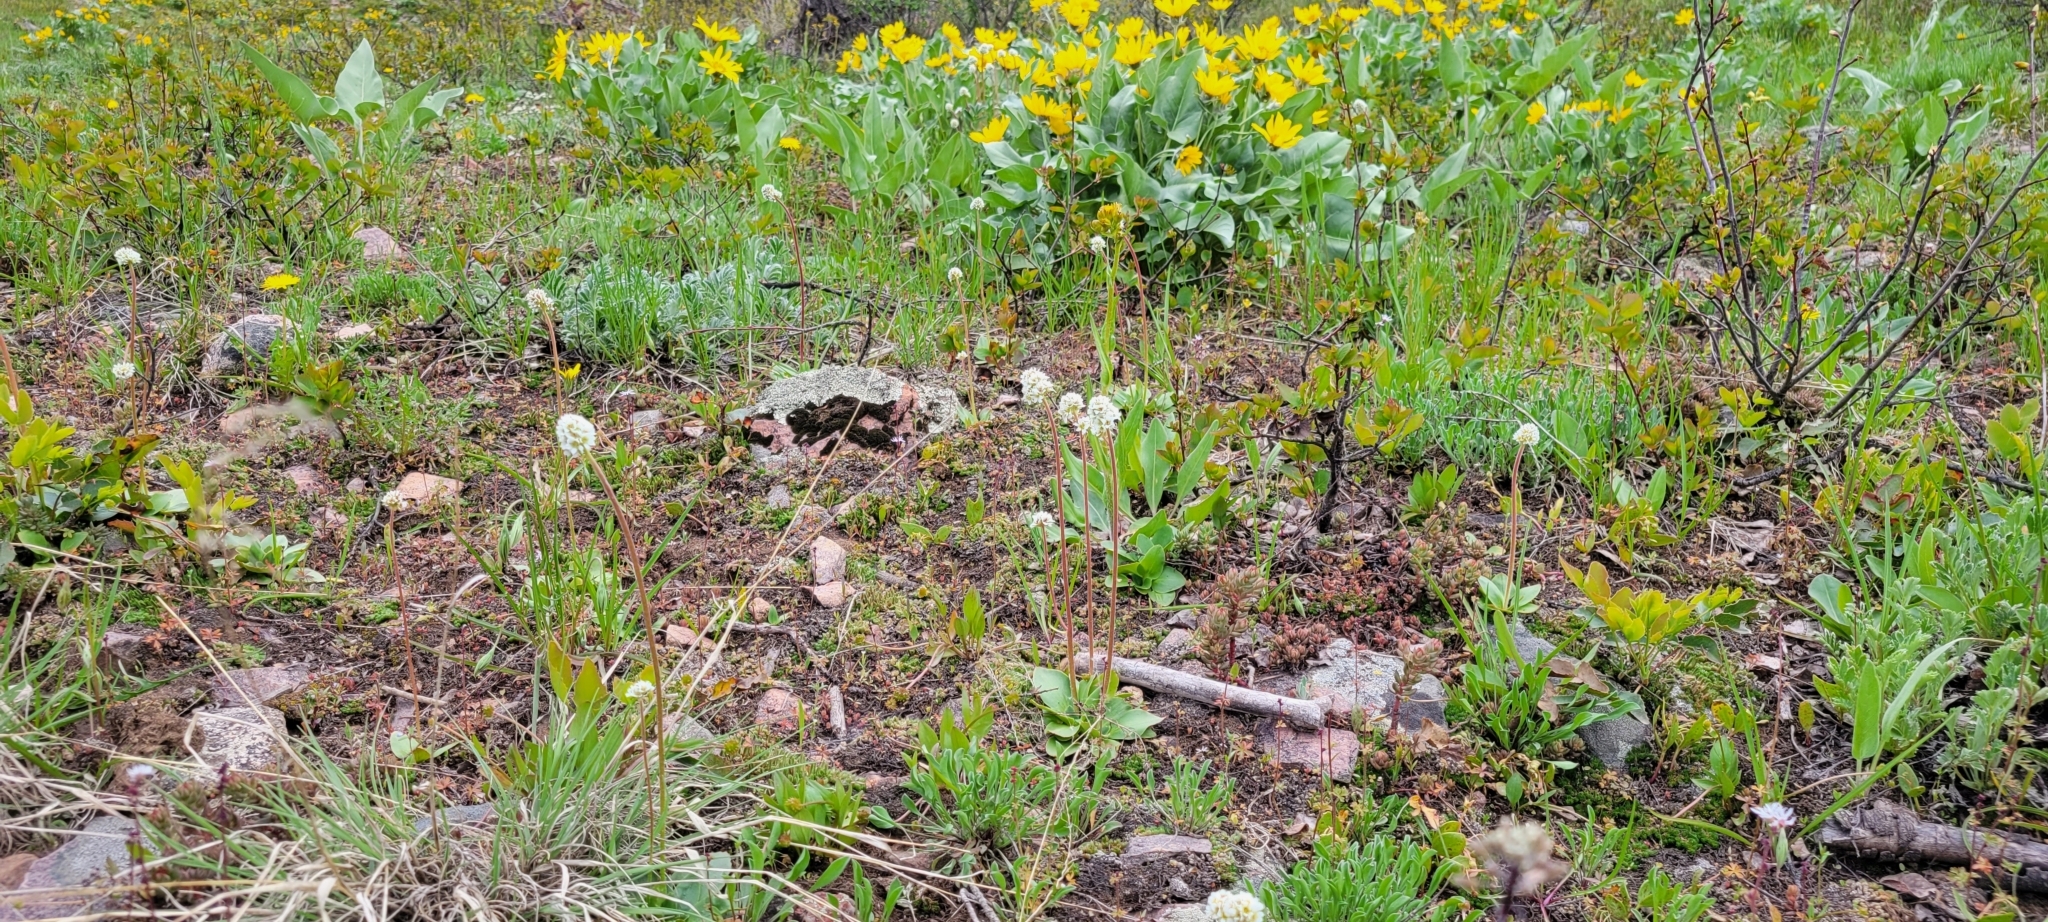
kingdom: Plantae
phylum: Tracheophyta
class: Magnoliopsida
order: Saxifragales
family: Saxifragaceae
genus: Micranthes
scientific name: Micranthes rhomboidea
